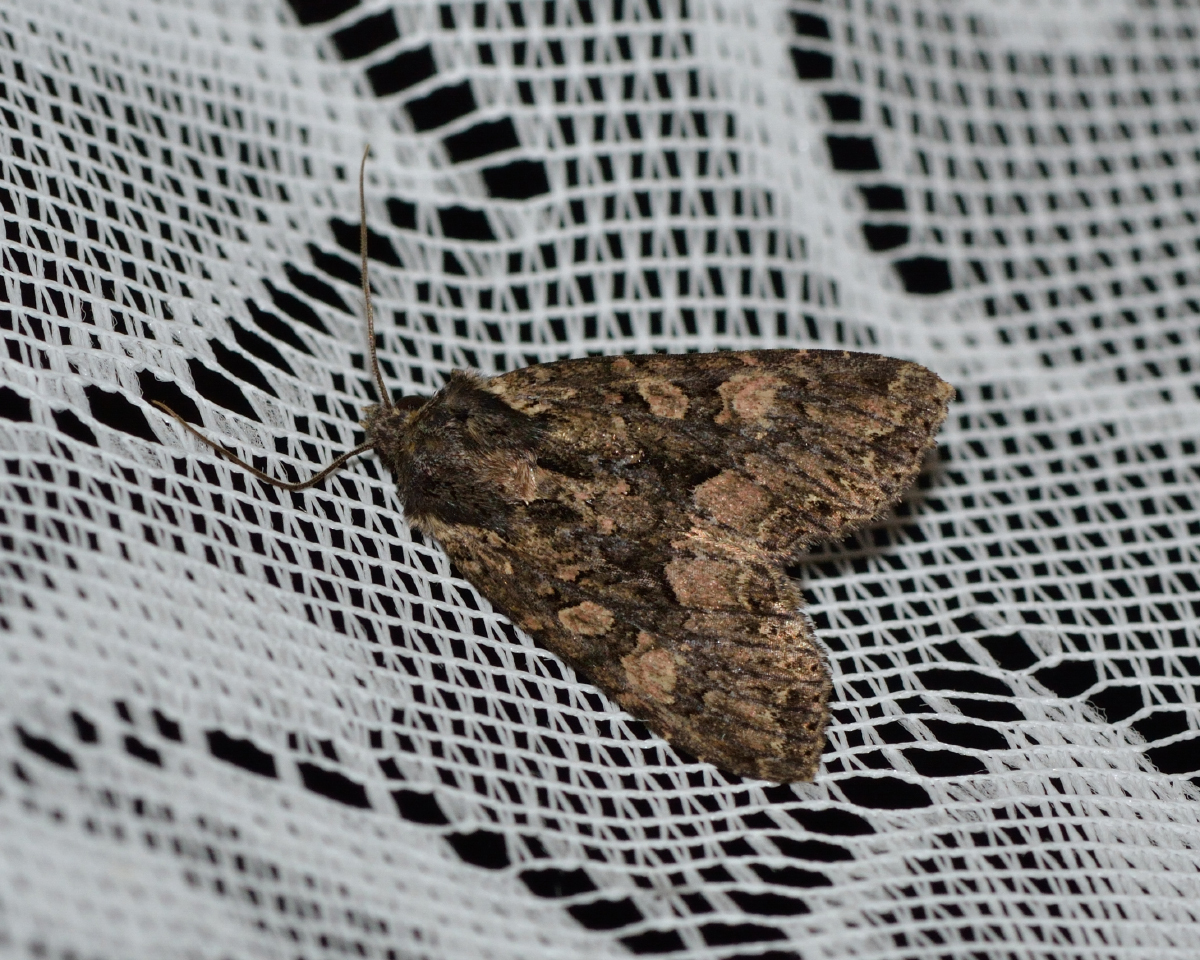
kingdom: Animalia
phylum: Arthropoda
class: Insecta
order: Lepidoptera
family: Noctuidae
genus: Mniotype
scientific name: Mniotype satura
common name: Beautiful arches
